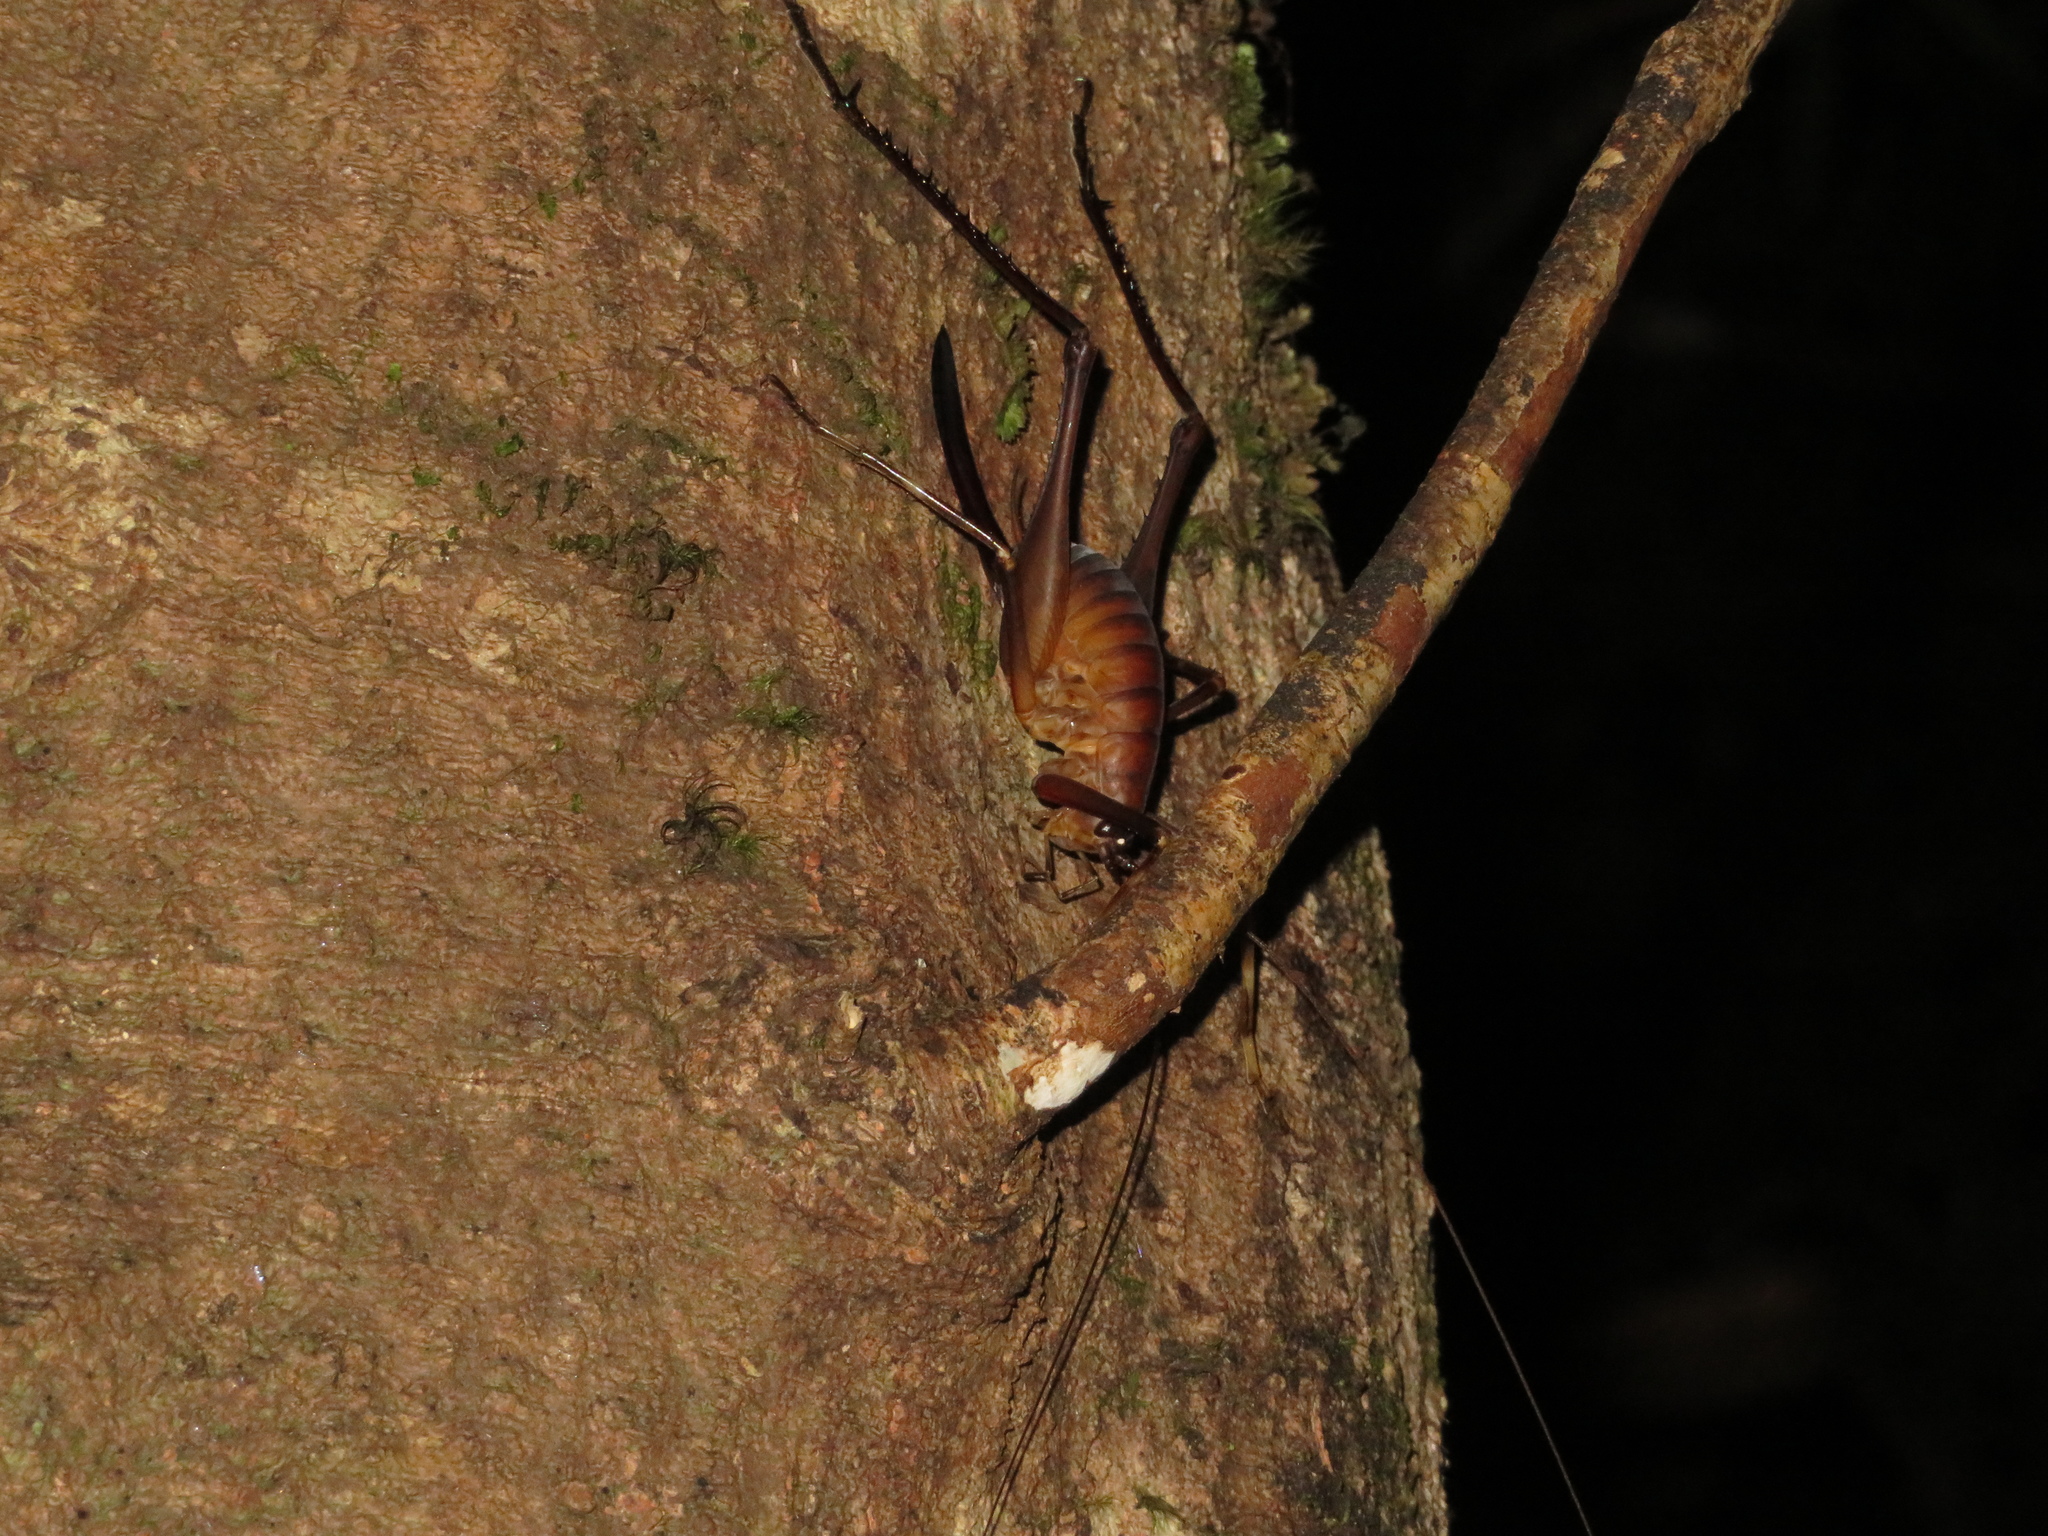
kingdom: Animalia
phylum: Arthropoda
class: Insecta
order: Orthoptera
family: Rhaphidophoridae
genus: Pachyrhamma
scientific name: Pachyrhamma longipes
